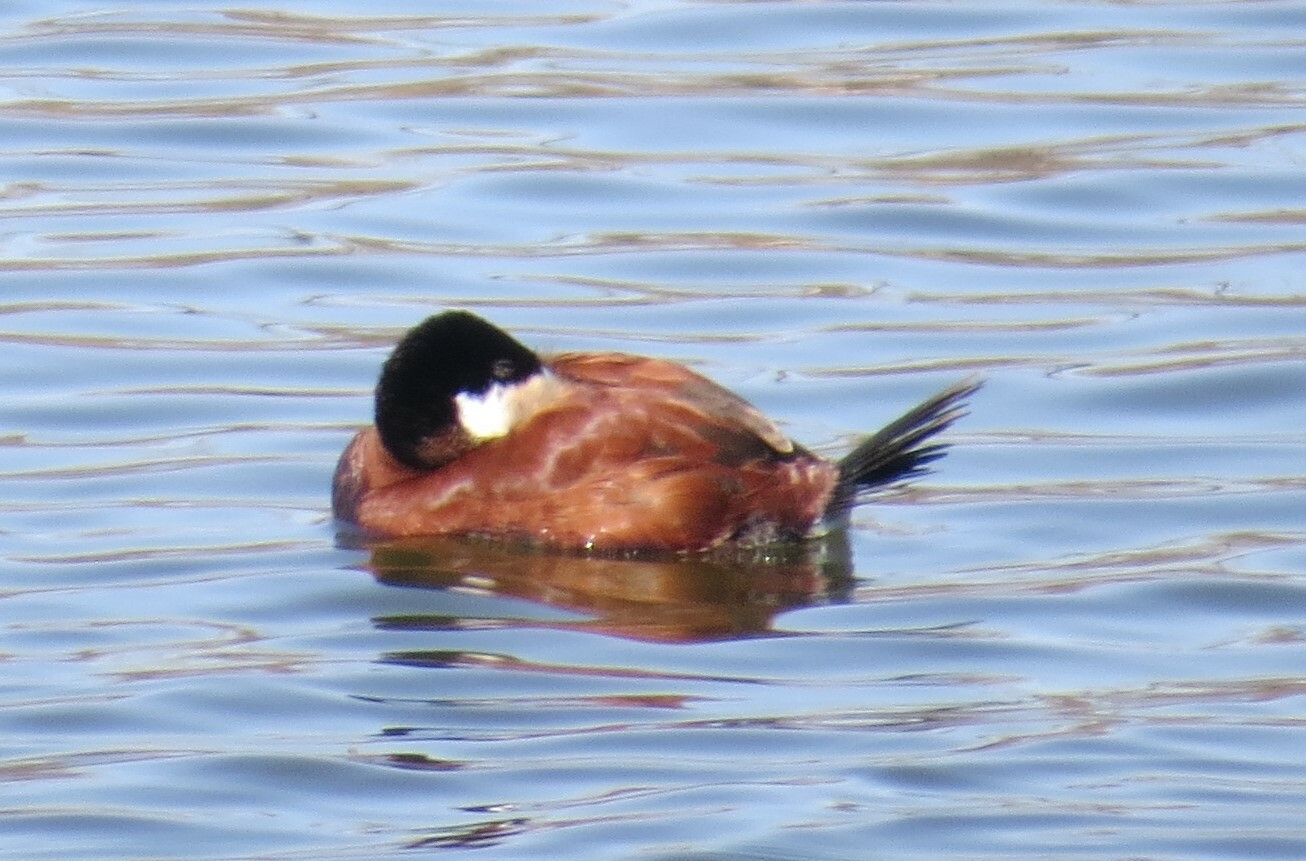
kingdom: Animalia
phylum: Chordata
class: Aves
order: Anseriformes
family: Anatidae
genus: Oxyura
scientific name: Oxyura jamaicensis
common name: Ruddy duck
